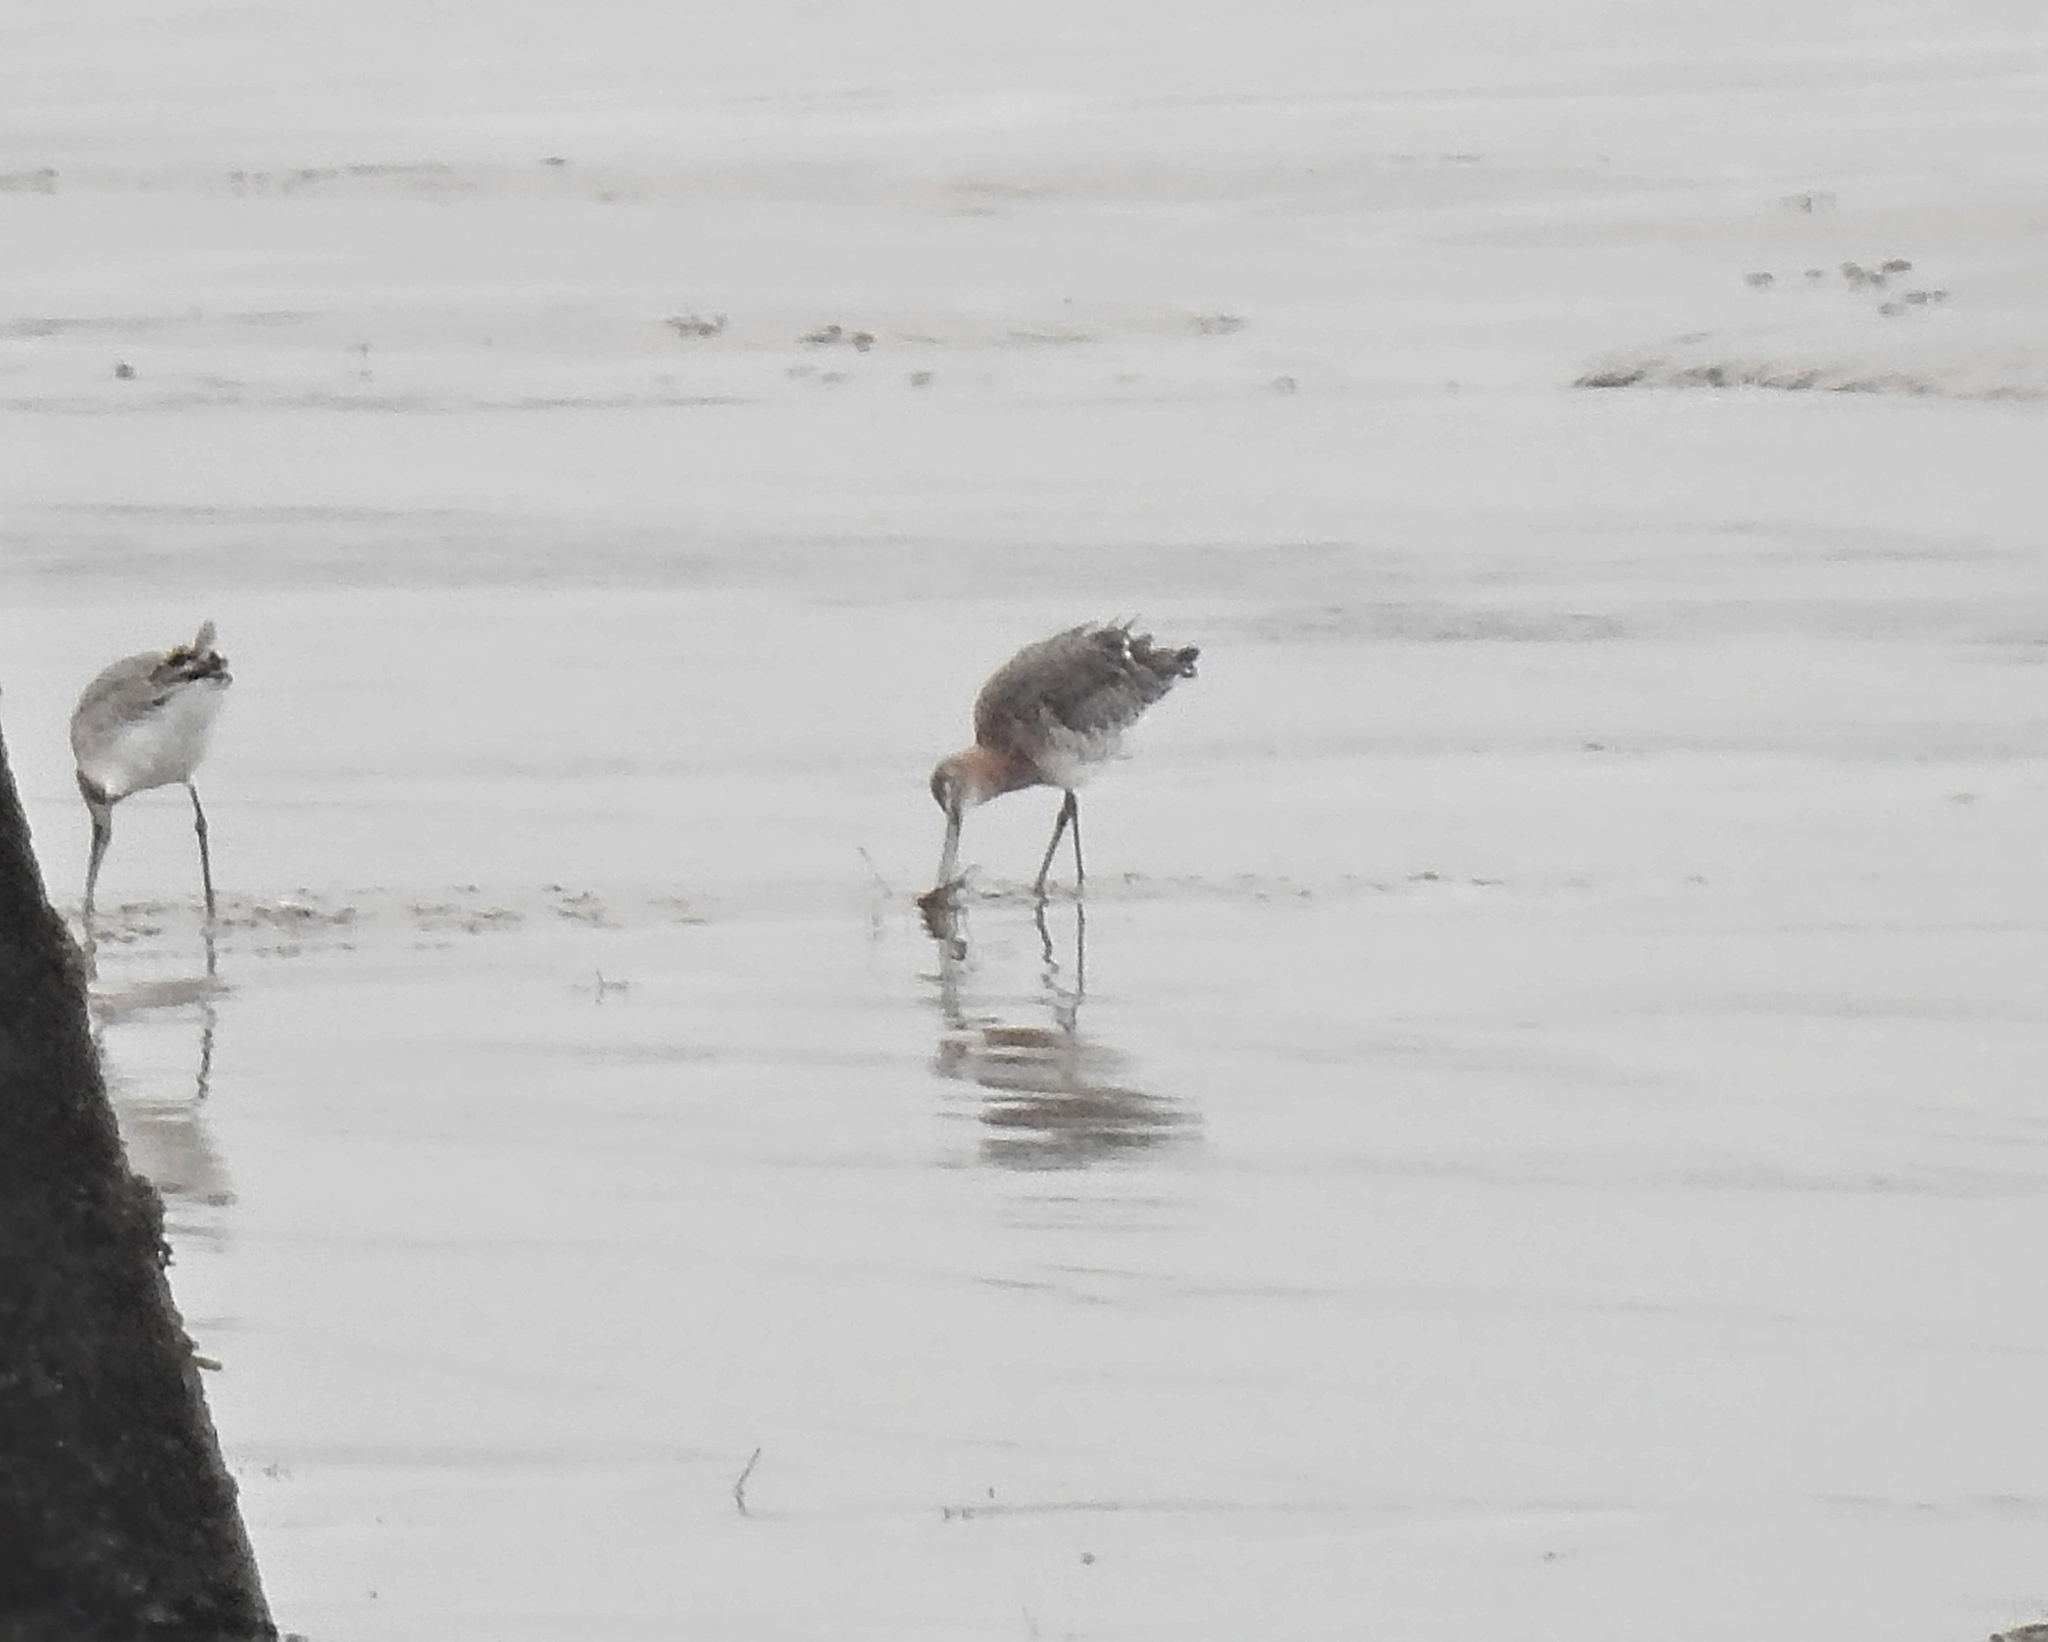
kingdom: Animalia
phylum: Chordata
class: Aves
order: Charadriiformes
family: Scolopacidae
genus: Limosa
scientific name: Limosa limosa
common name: Black-tailed godwit
